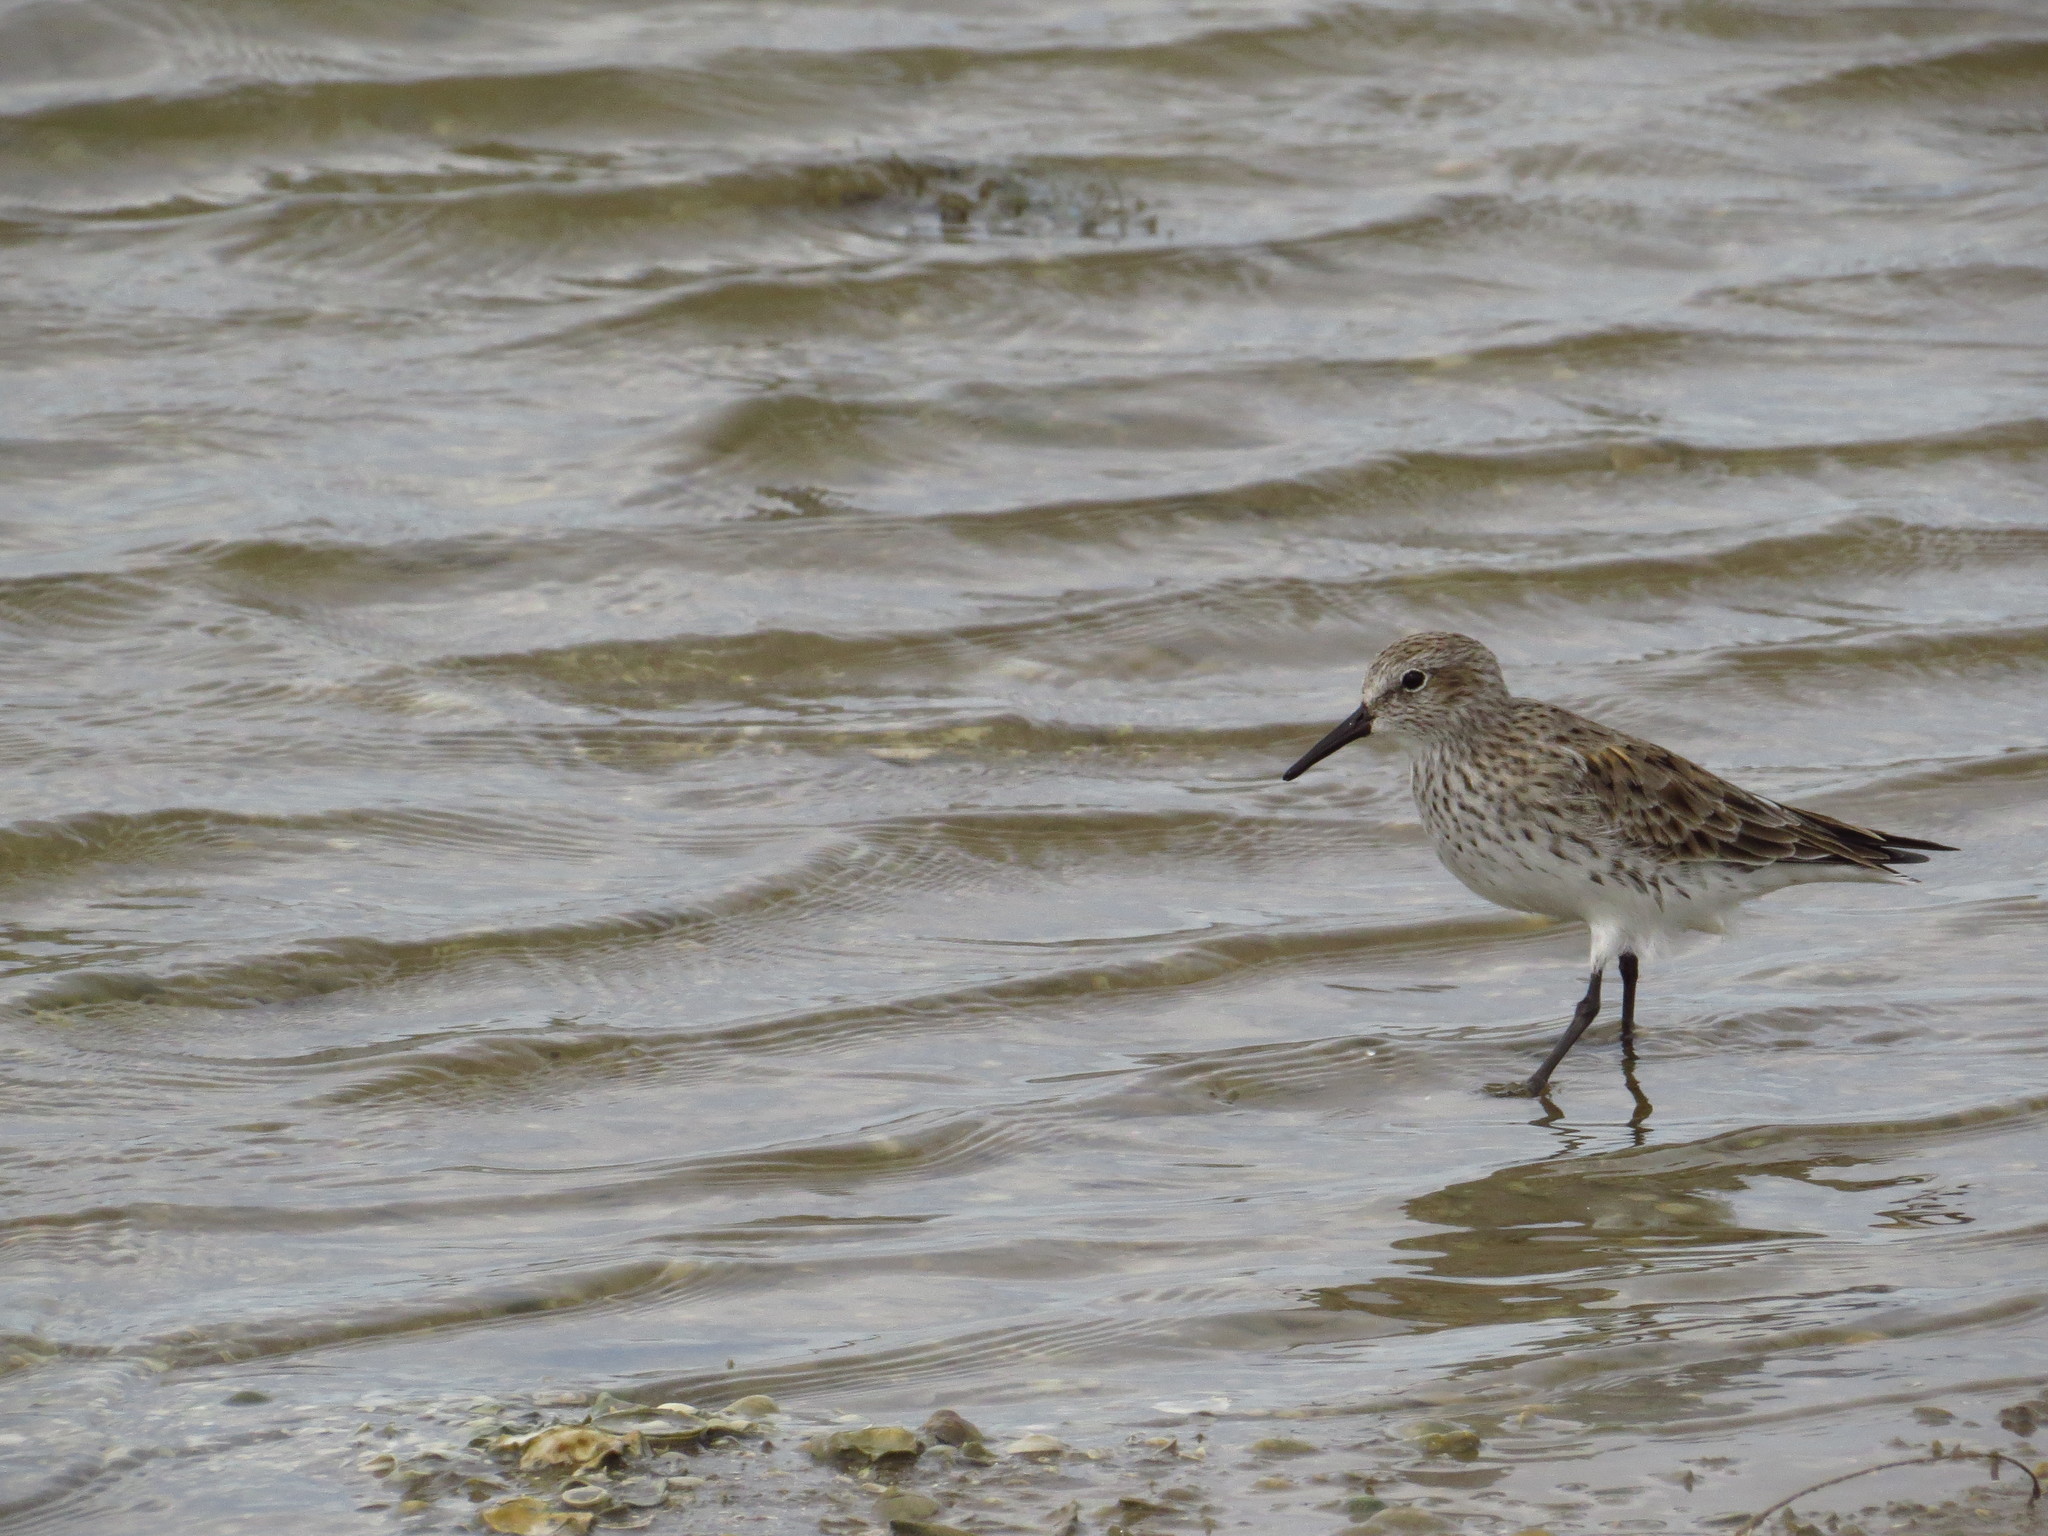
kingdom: Animalia
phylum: Chordata
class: Aves
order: Charadriiformes
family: Scolopacidae
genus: Calidris
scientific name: Calidris fuscicollis
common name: White-rumped sandpiper
